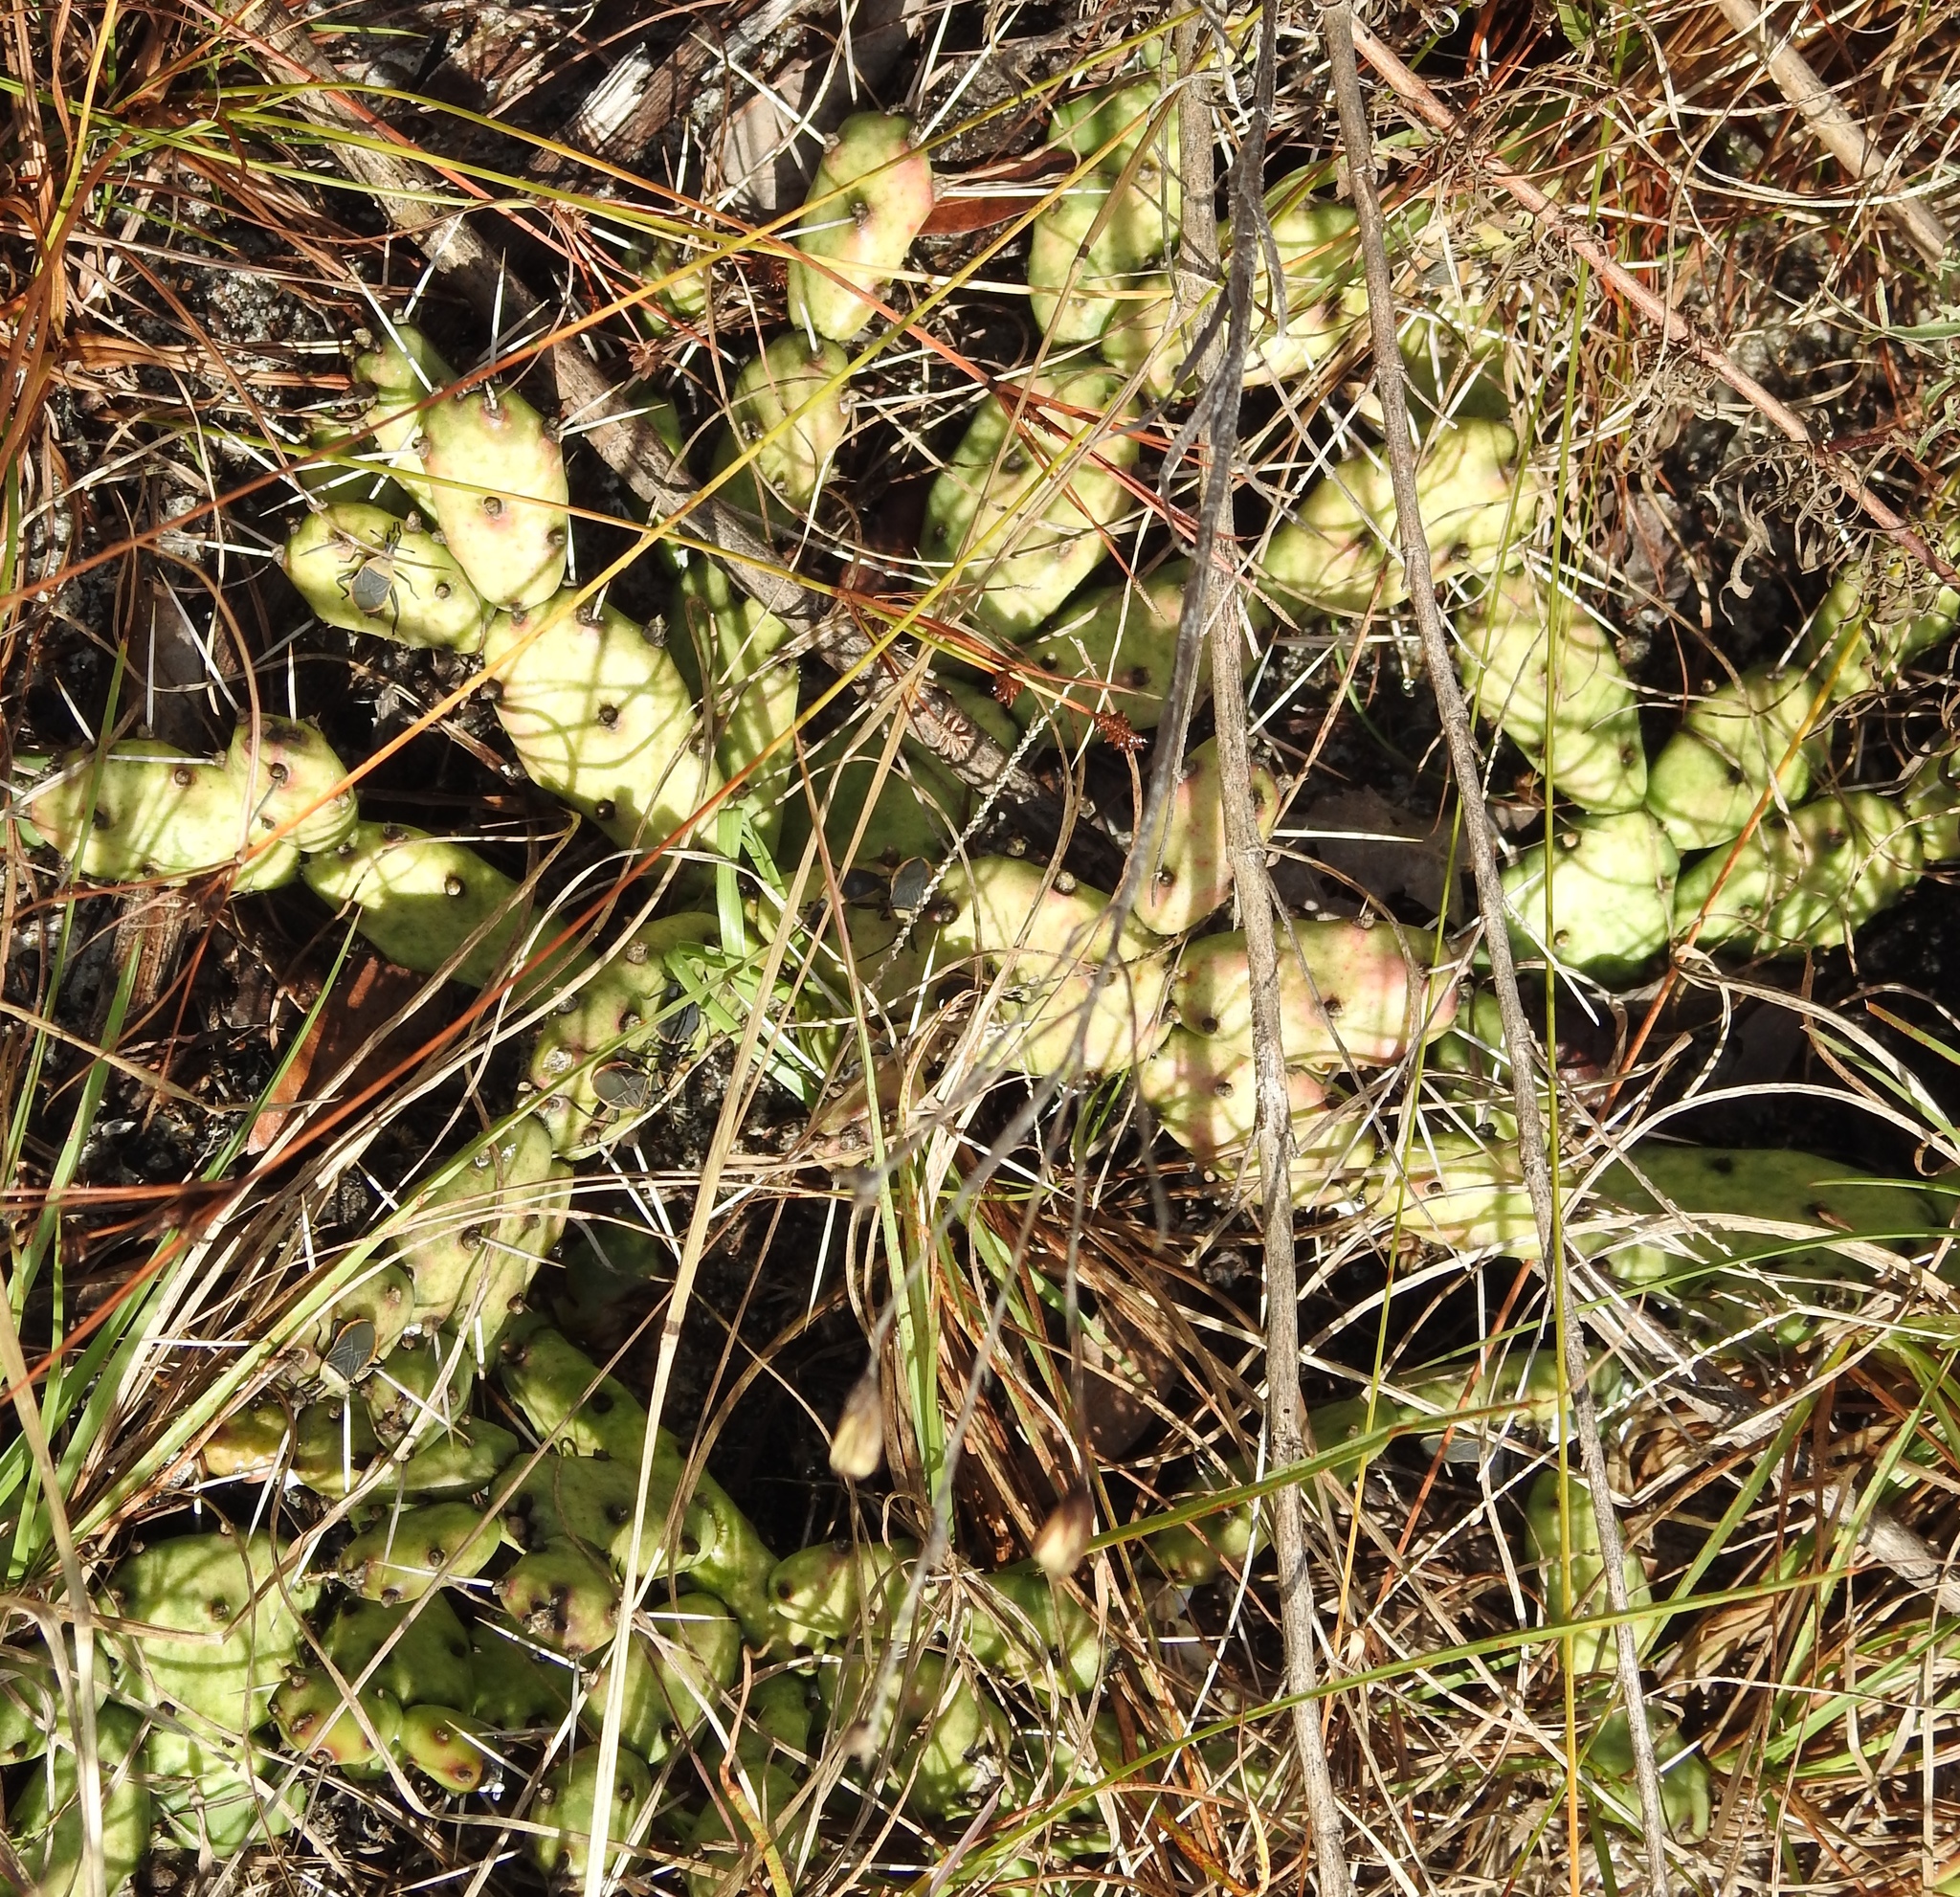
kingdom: Plantae
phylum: Tracheophyta
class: Magnoliopsida
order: Caryophyllales
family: Cactaceae
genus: Opuntia
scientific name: Opuntia drummondii
